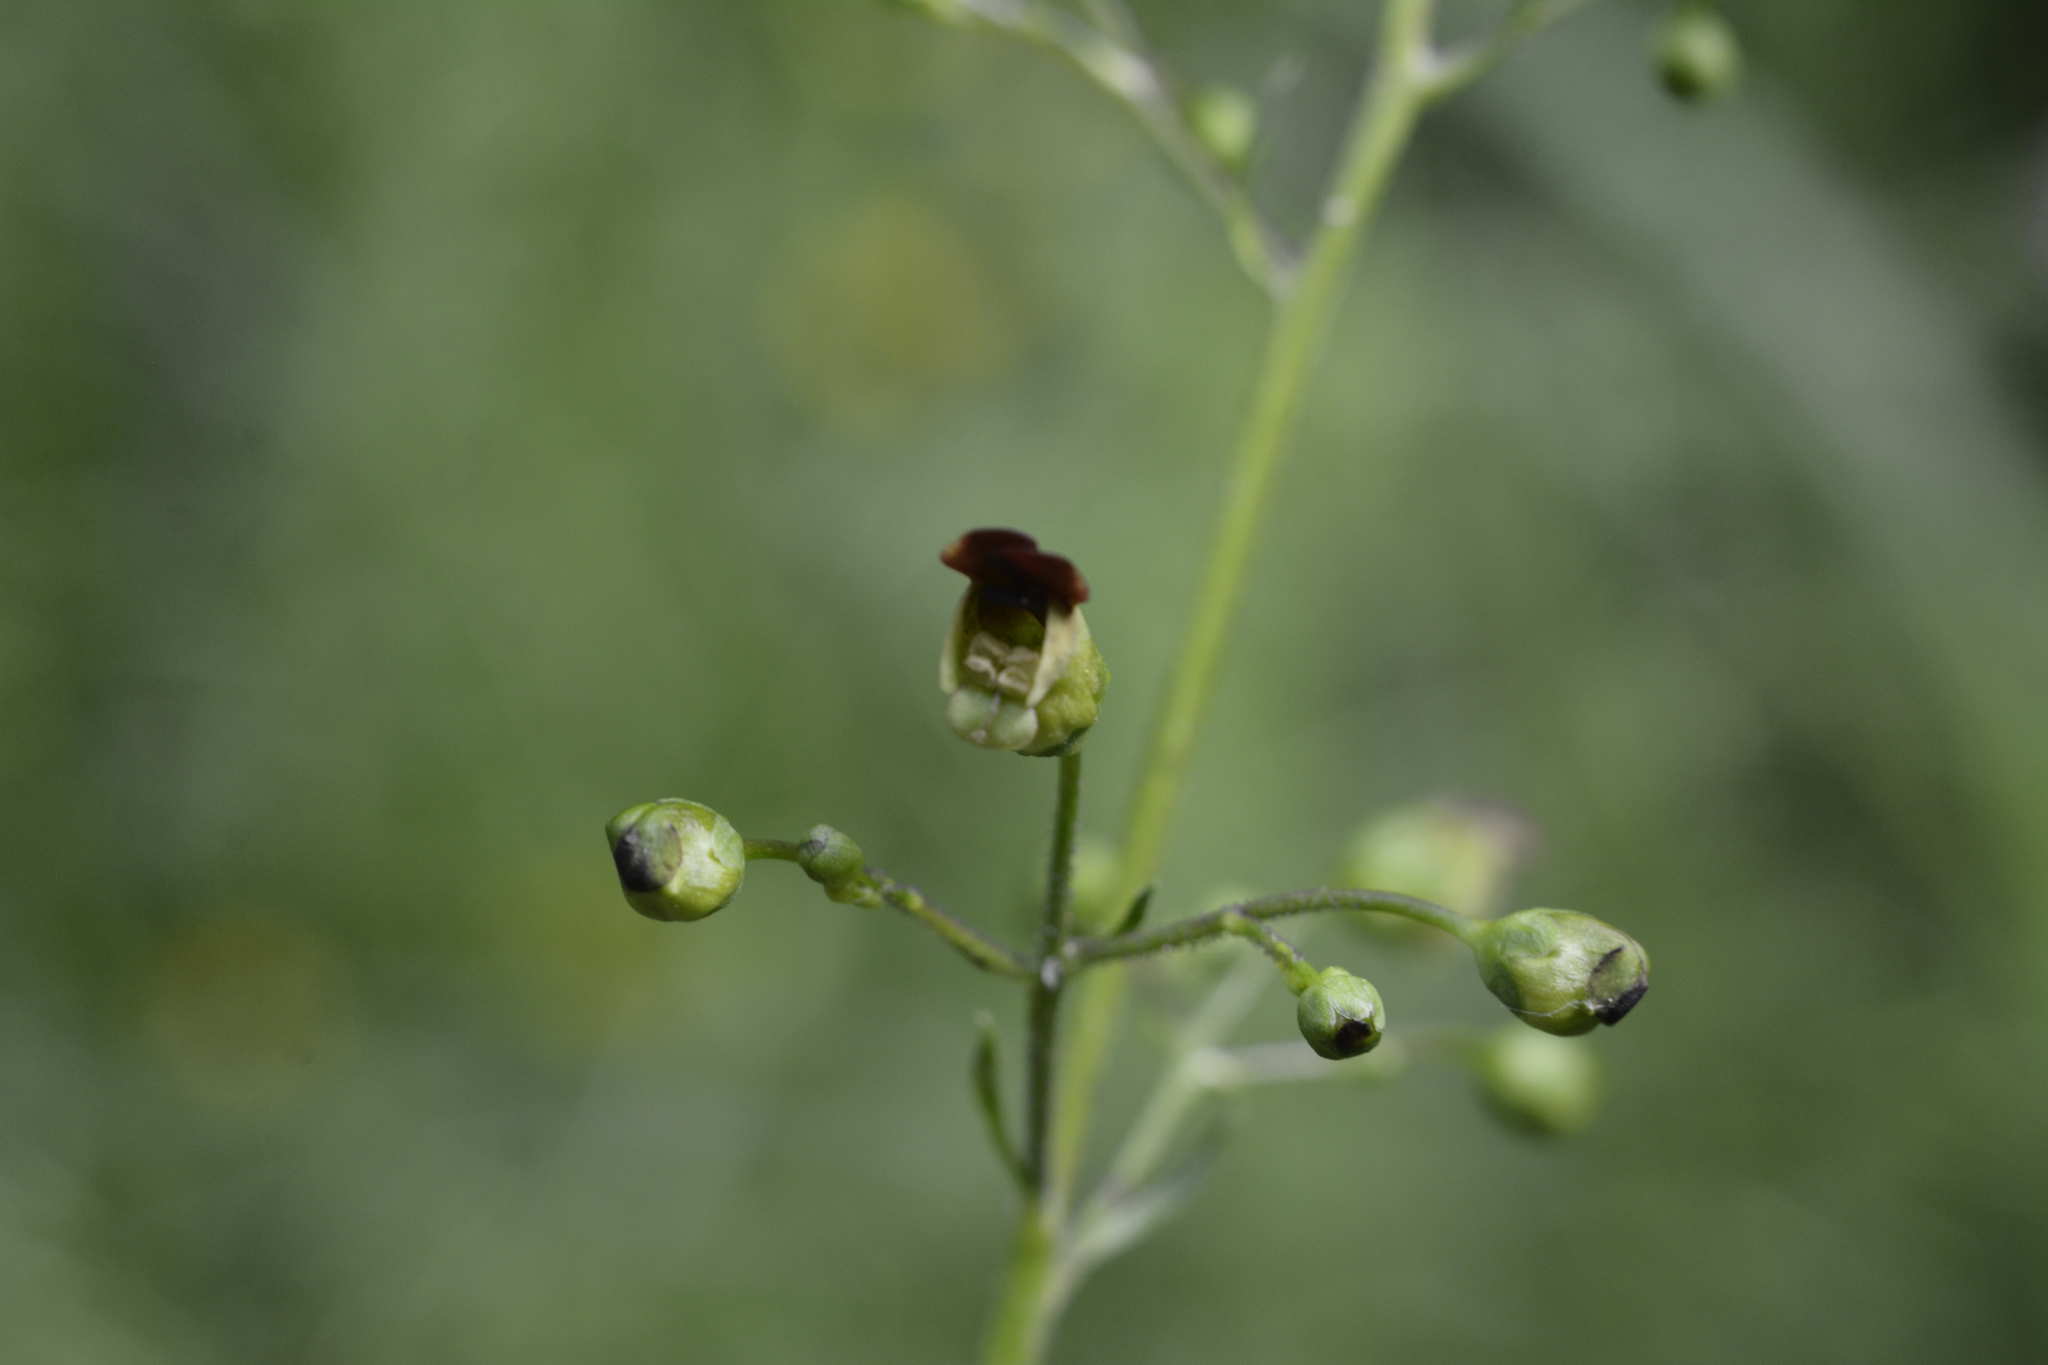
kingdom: Plantae
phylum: Tracheophyta
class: Magnoliopsida
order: Lamiales
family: Scrophulariaceae
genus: Scrophularia
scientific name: Scrophularia nodosa
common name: Common figwort
